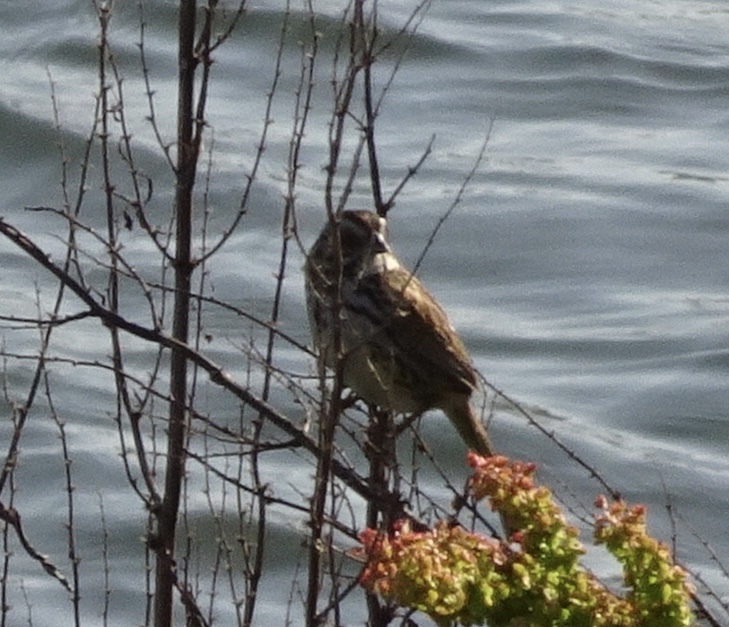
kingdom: Animalia
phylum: Chordata
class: Aves
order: Passeriformes
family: Passerellidae
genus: Melospiza
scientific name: Melospiza melodia
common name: Song sparrow
